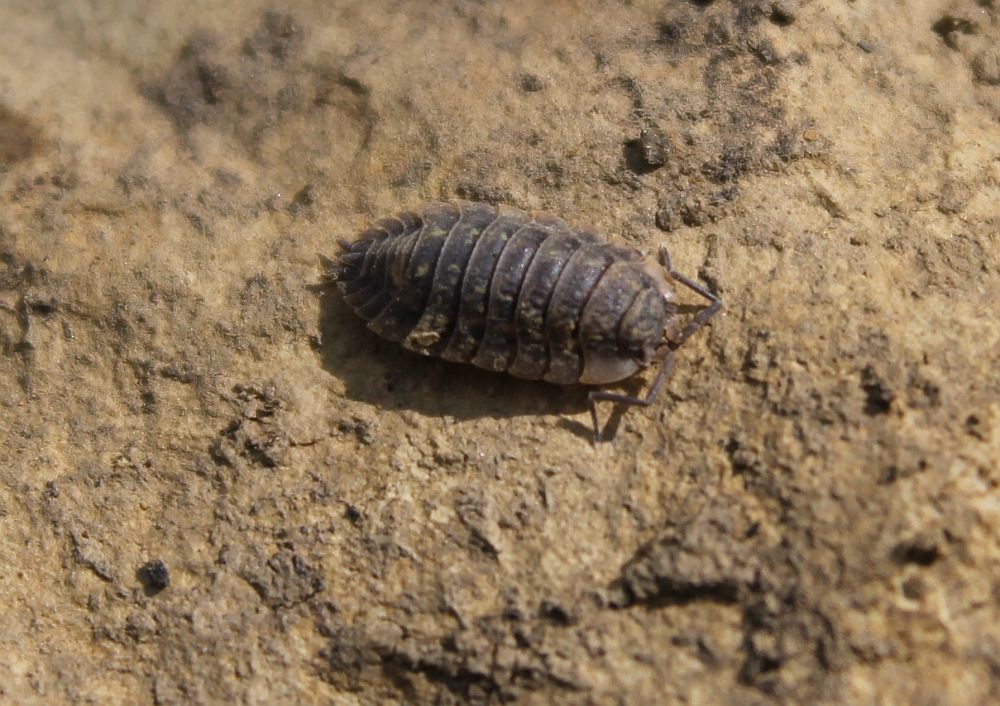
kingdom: Animalia
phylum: Arthropoda
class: Malacostraca
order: Isopoda
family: Oniscidae
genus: Oniscus
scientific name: Oniscus asellus
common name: Common shiny woodlouse
